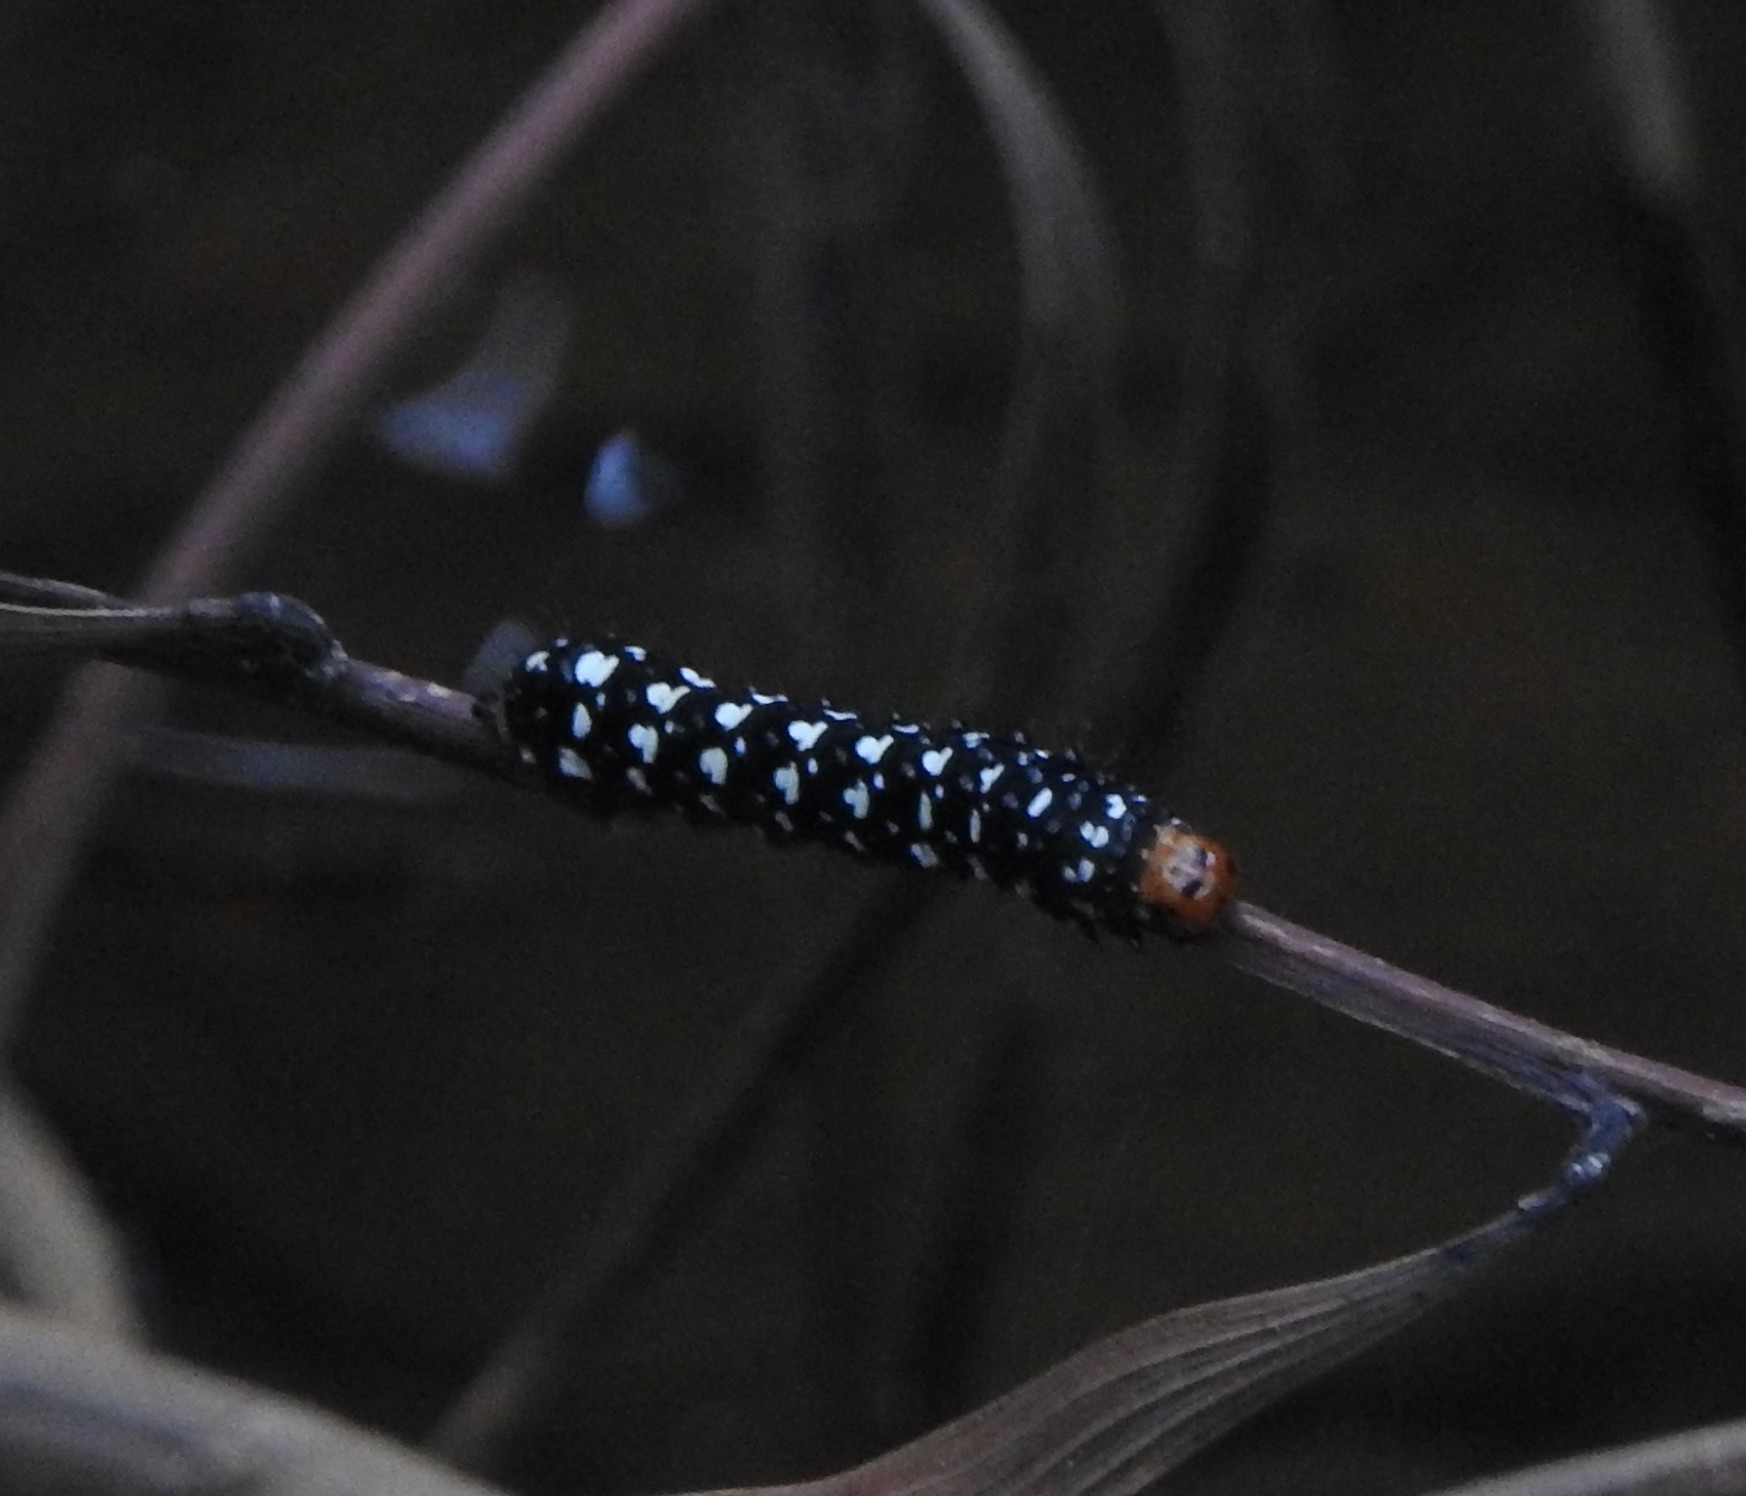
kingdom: Animalia
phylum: Arthropoda
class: Insecta
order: Lepidoptera
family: Noctuidae
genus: Brithys
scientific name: Brithys crini
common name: Kew arches
